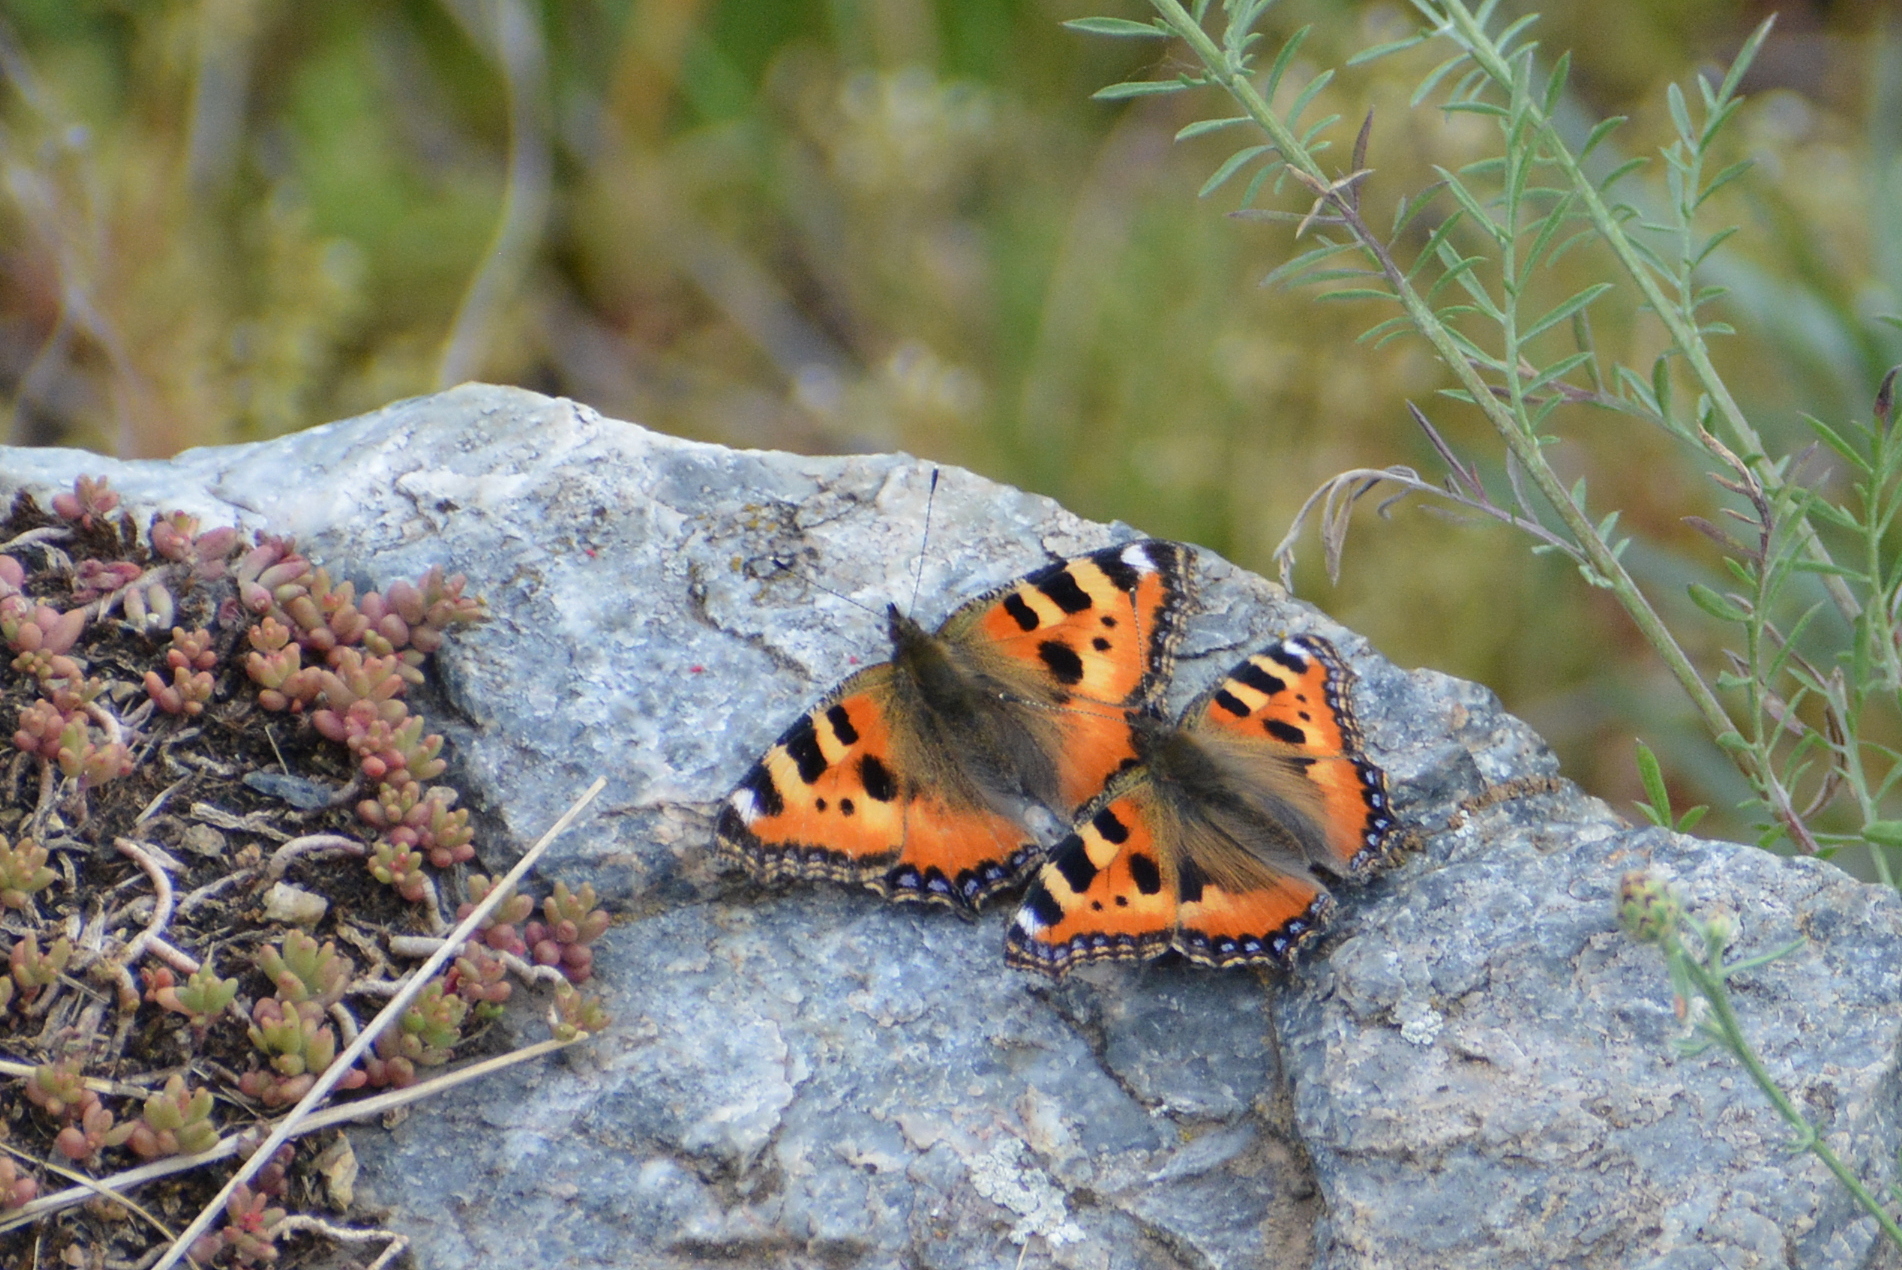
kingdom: Animalia
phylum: Arthropoda
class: Insecta
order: Lepidoptera
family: Nymphalidae
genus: Aglais
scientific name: Aglais urticae
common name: Small tortoiseshell
